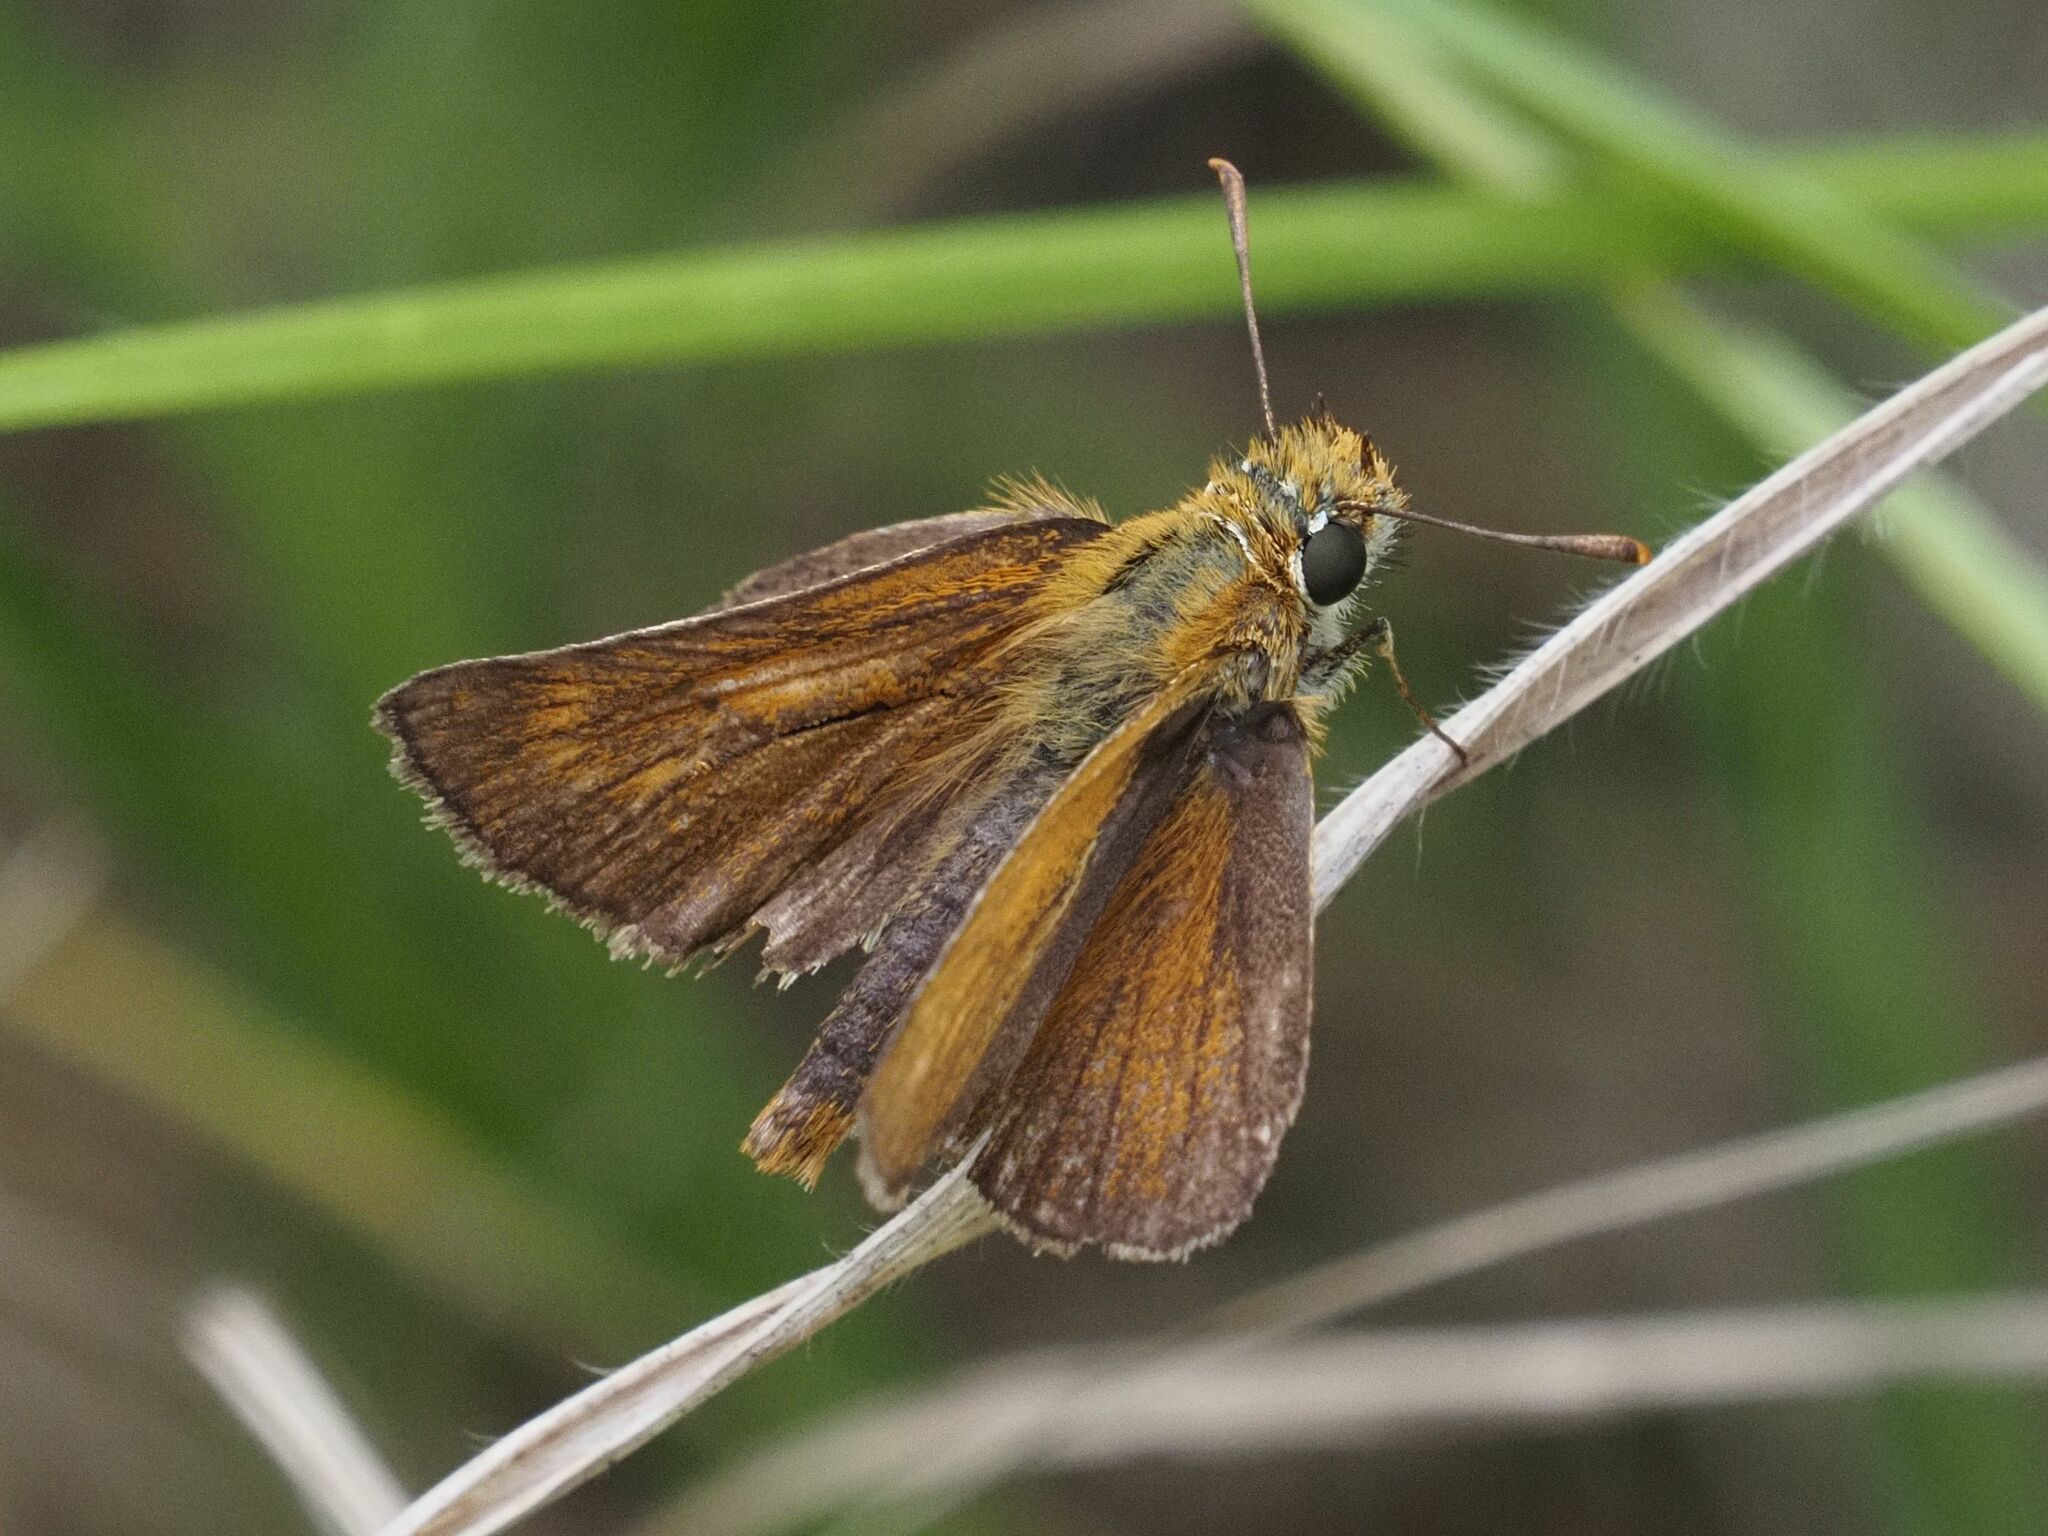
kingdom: Animalia
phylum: Arthropoda
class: Insecta
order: Lepidoptera
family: Hesperiidae
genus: Thymelicus
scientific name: Thymelicus acteon
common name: Lulworth skipper
